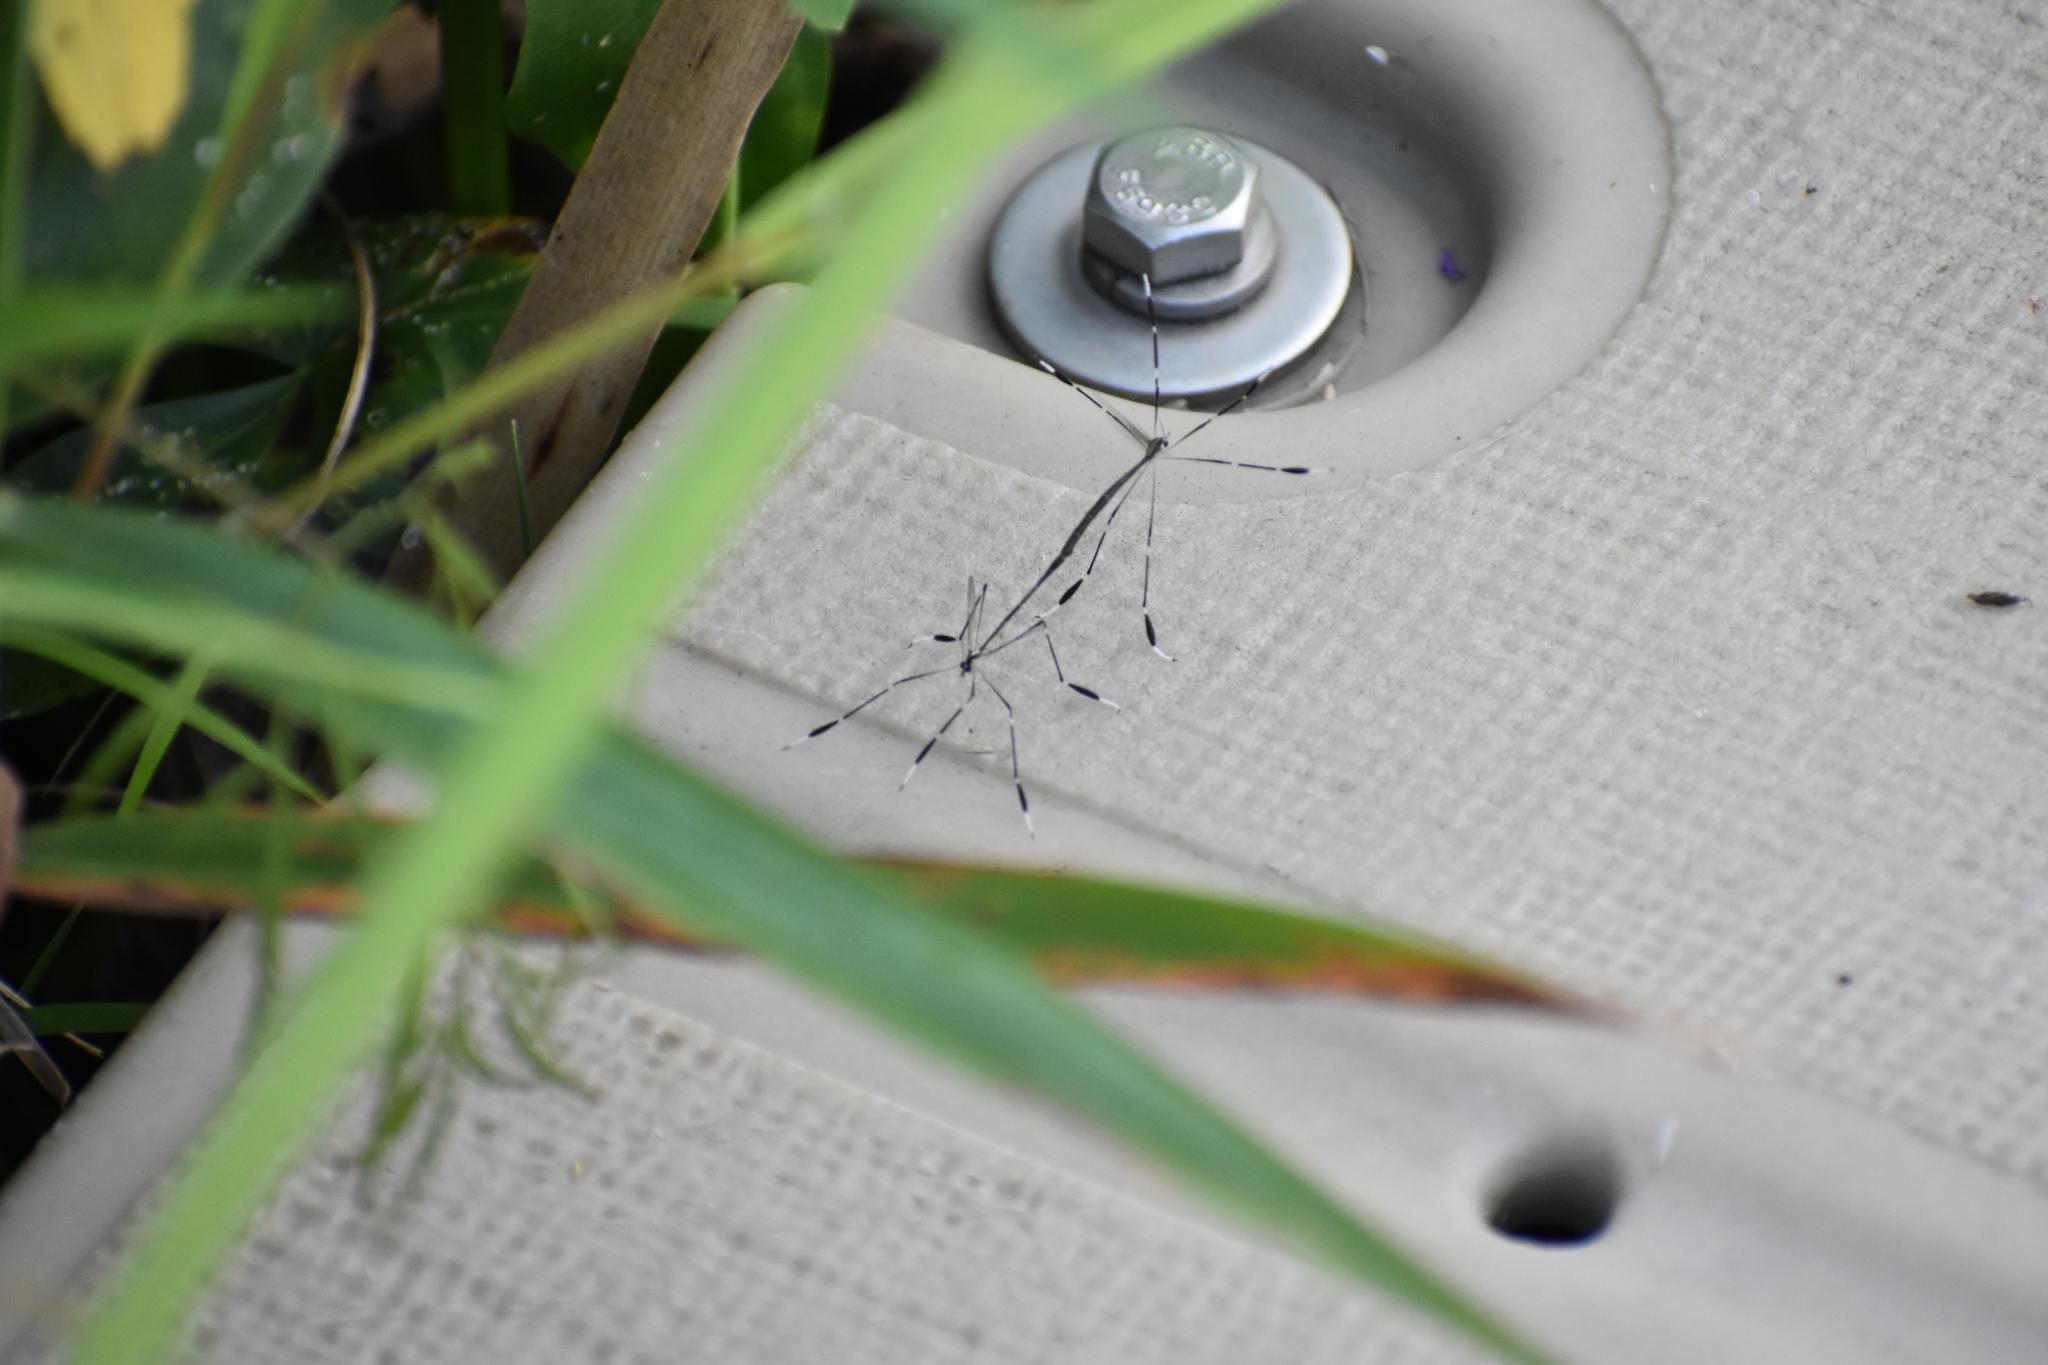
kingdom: Animalia
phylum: Arthropoda
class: Insecta
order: Diptera
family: Ptychopteridae
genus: Bittacomorpha
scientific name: Bittacomorpha clavipes
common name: Eastern phantom crane fly
